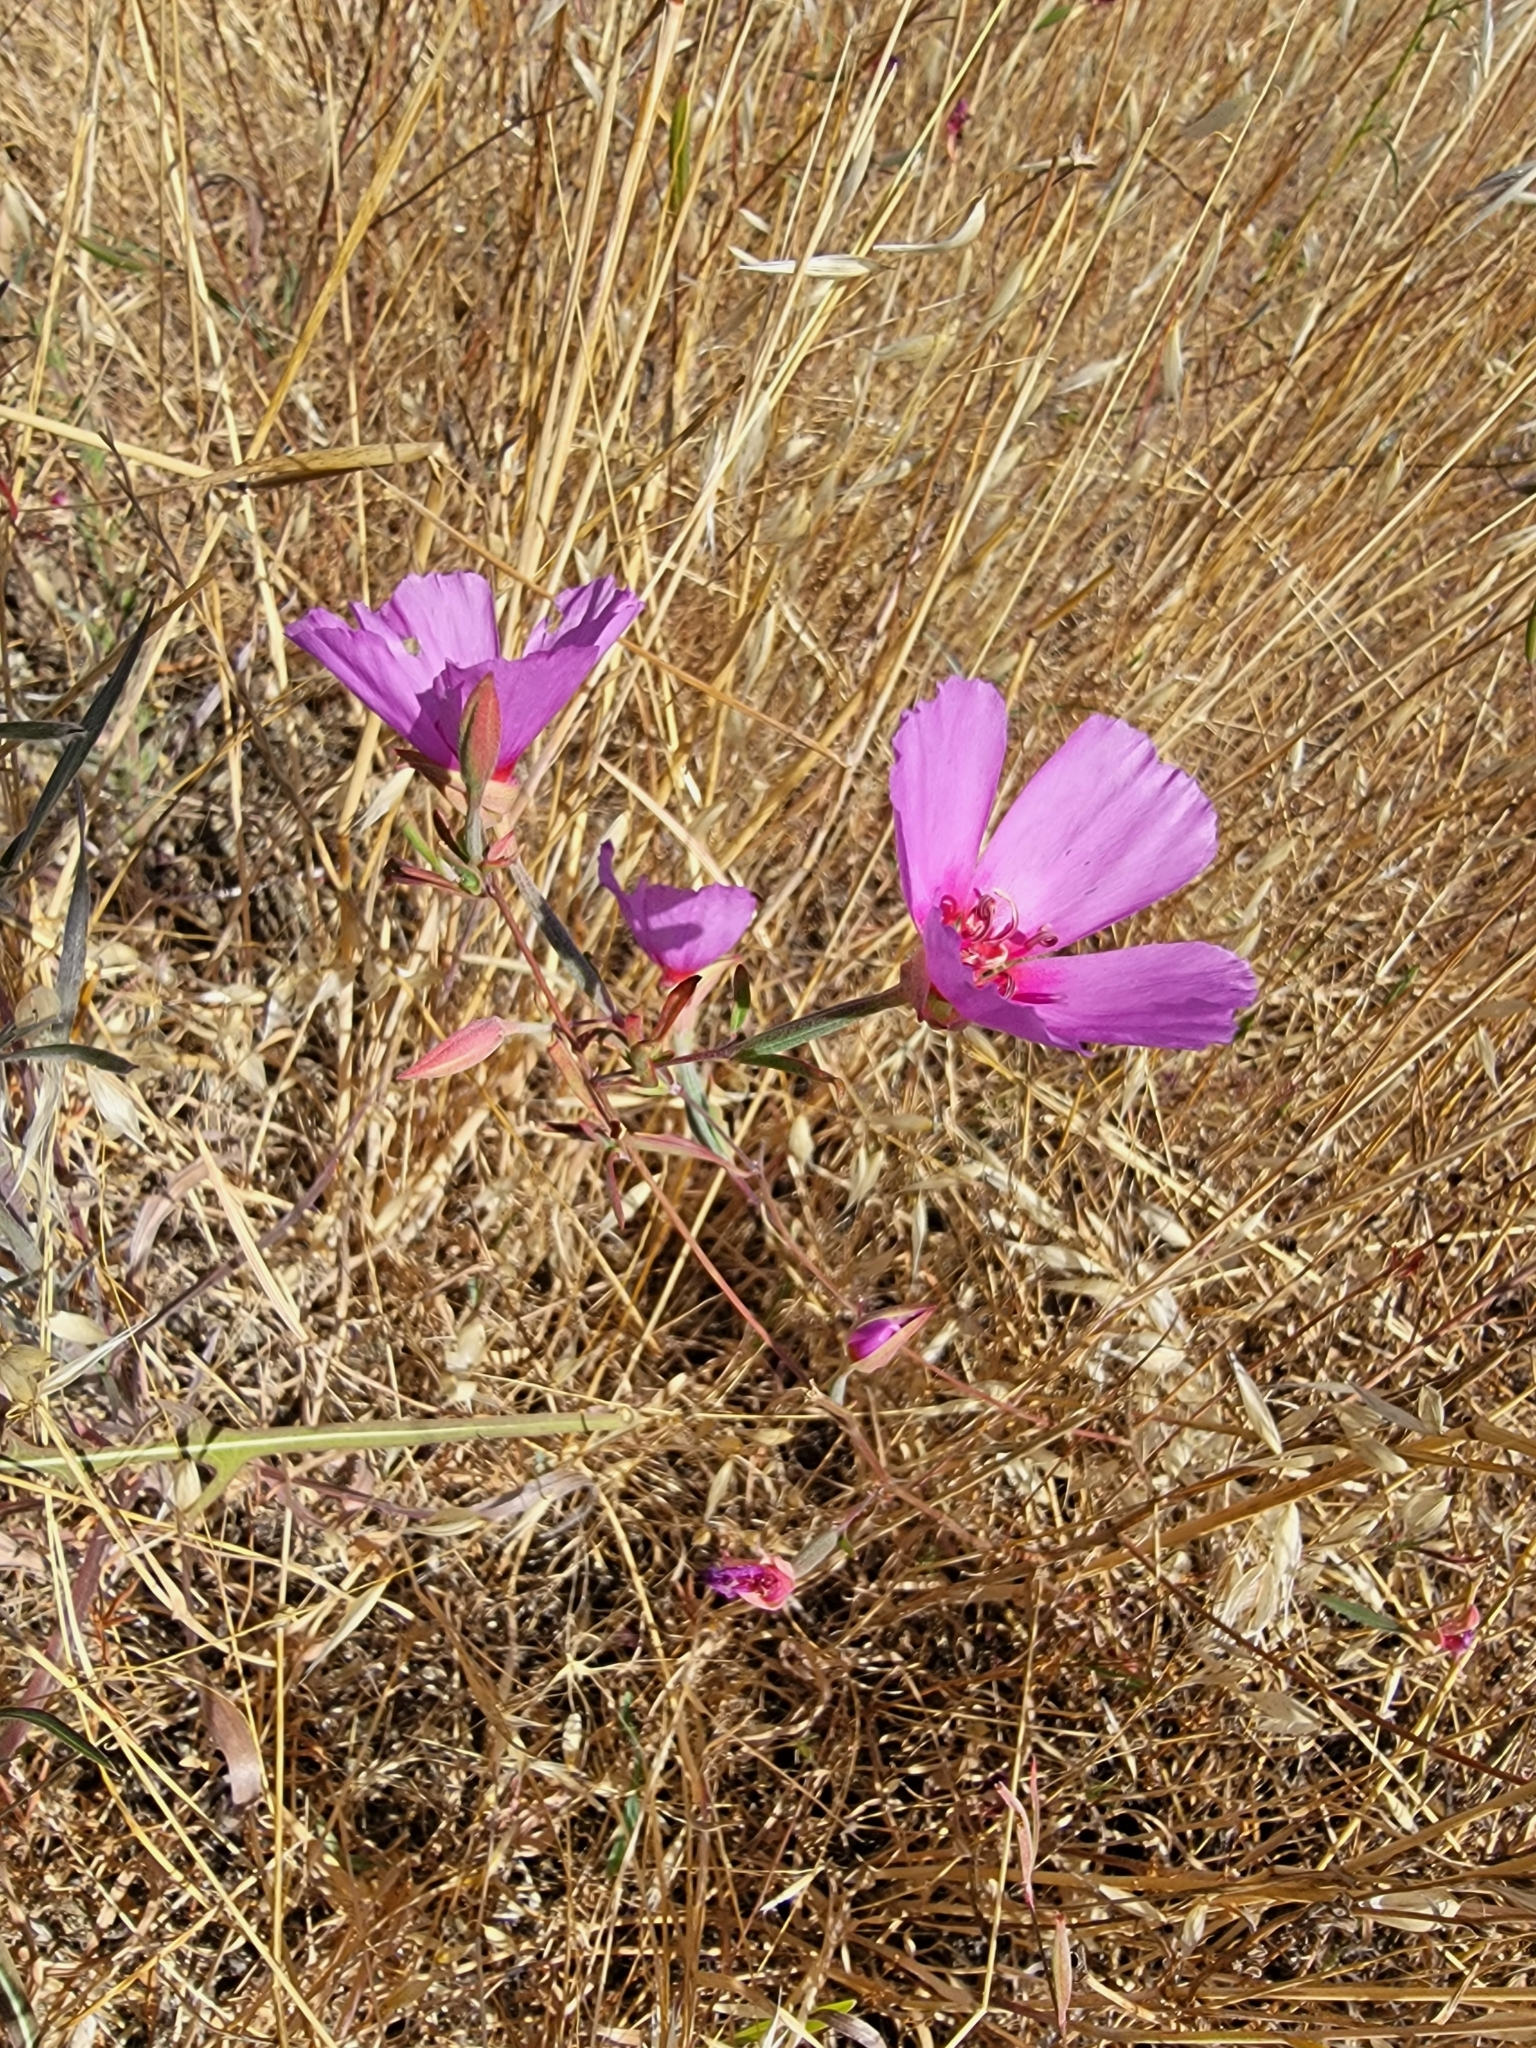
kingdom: Plantae
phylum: Tracheophyta
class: Magnoliopsida
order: Myrtales
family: Onagraceae
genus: Clarkia
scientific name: Clarkia rubicunda
